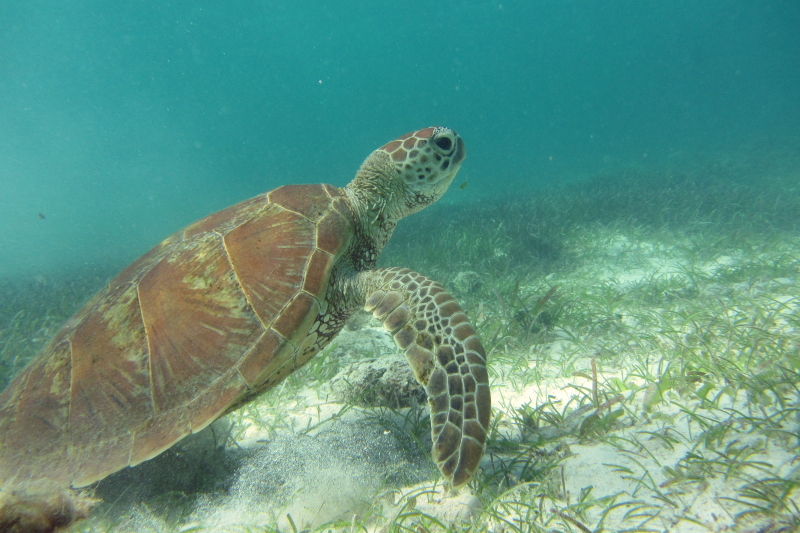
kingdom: Animalia
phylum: Chordata
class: Testudines
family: Cheloniidae
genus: Chelonia
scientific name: Chelonia mydas
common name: Green turtle
